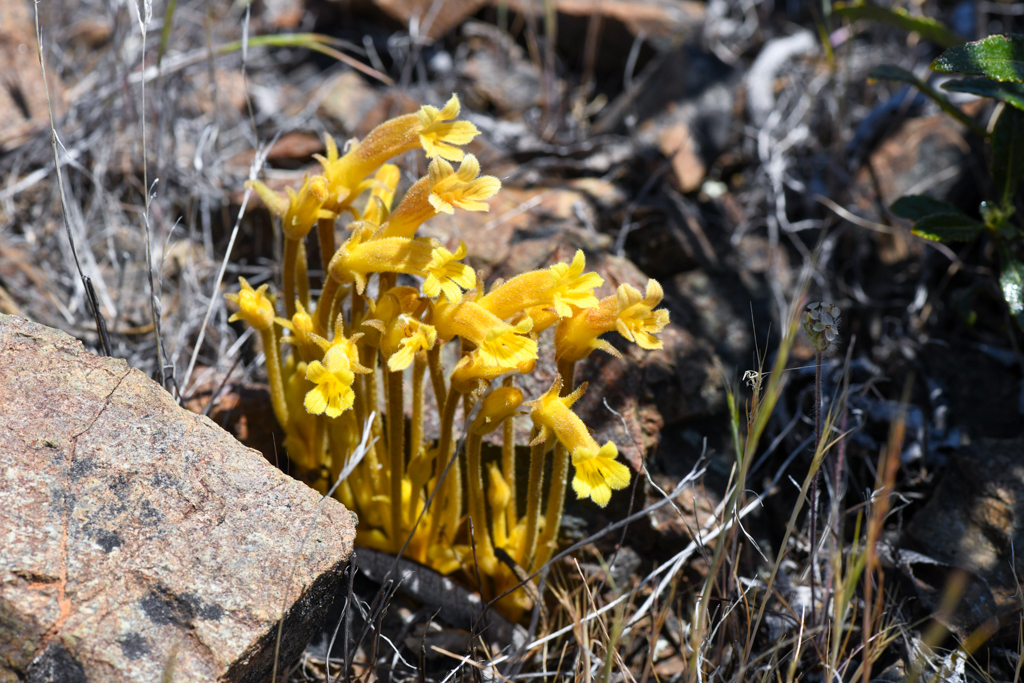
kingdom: Plantae
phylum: Tracheophyta
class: Magnoliopsida
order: Lamiales
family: Orobanchaceae
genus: Aphyllon
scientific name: Aphyllon franciscanum
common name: San francisco broomrape
